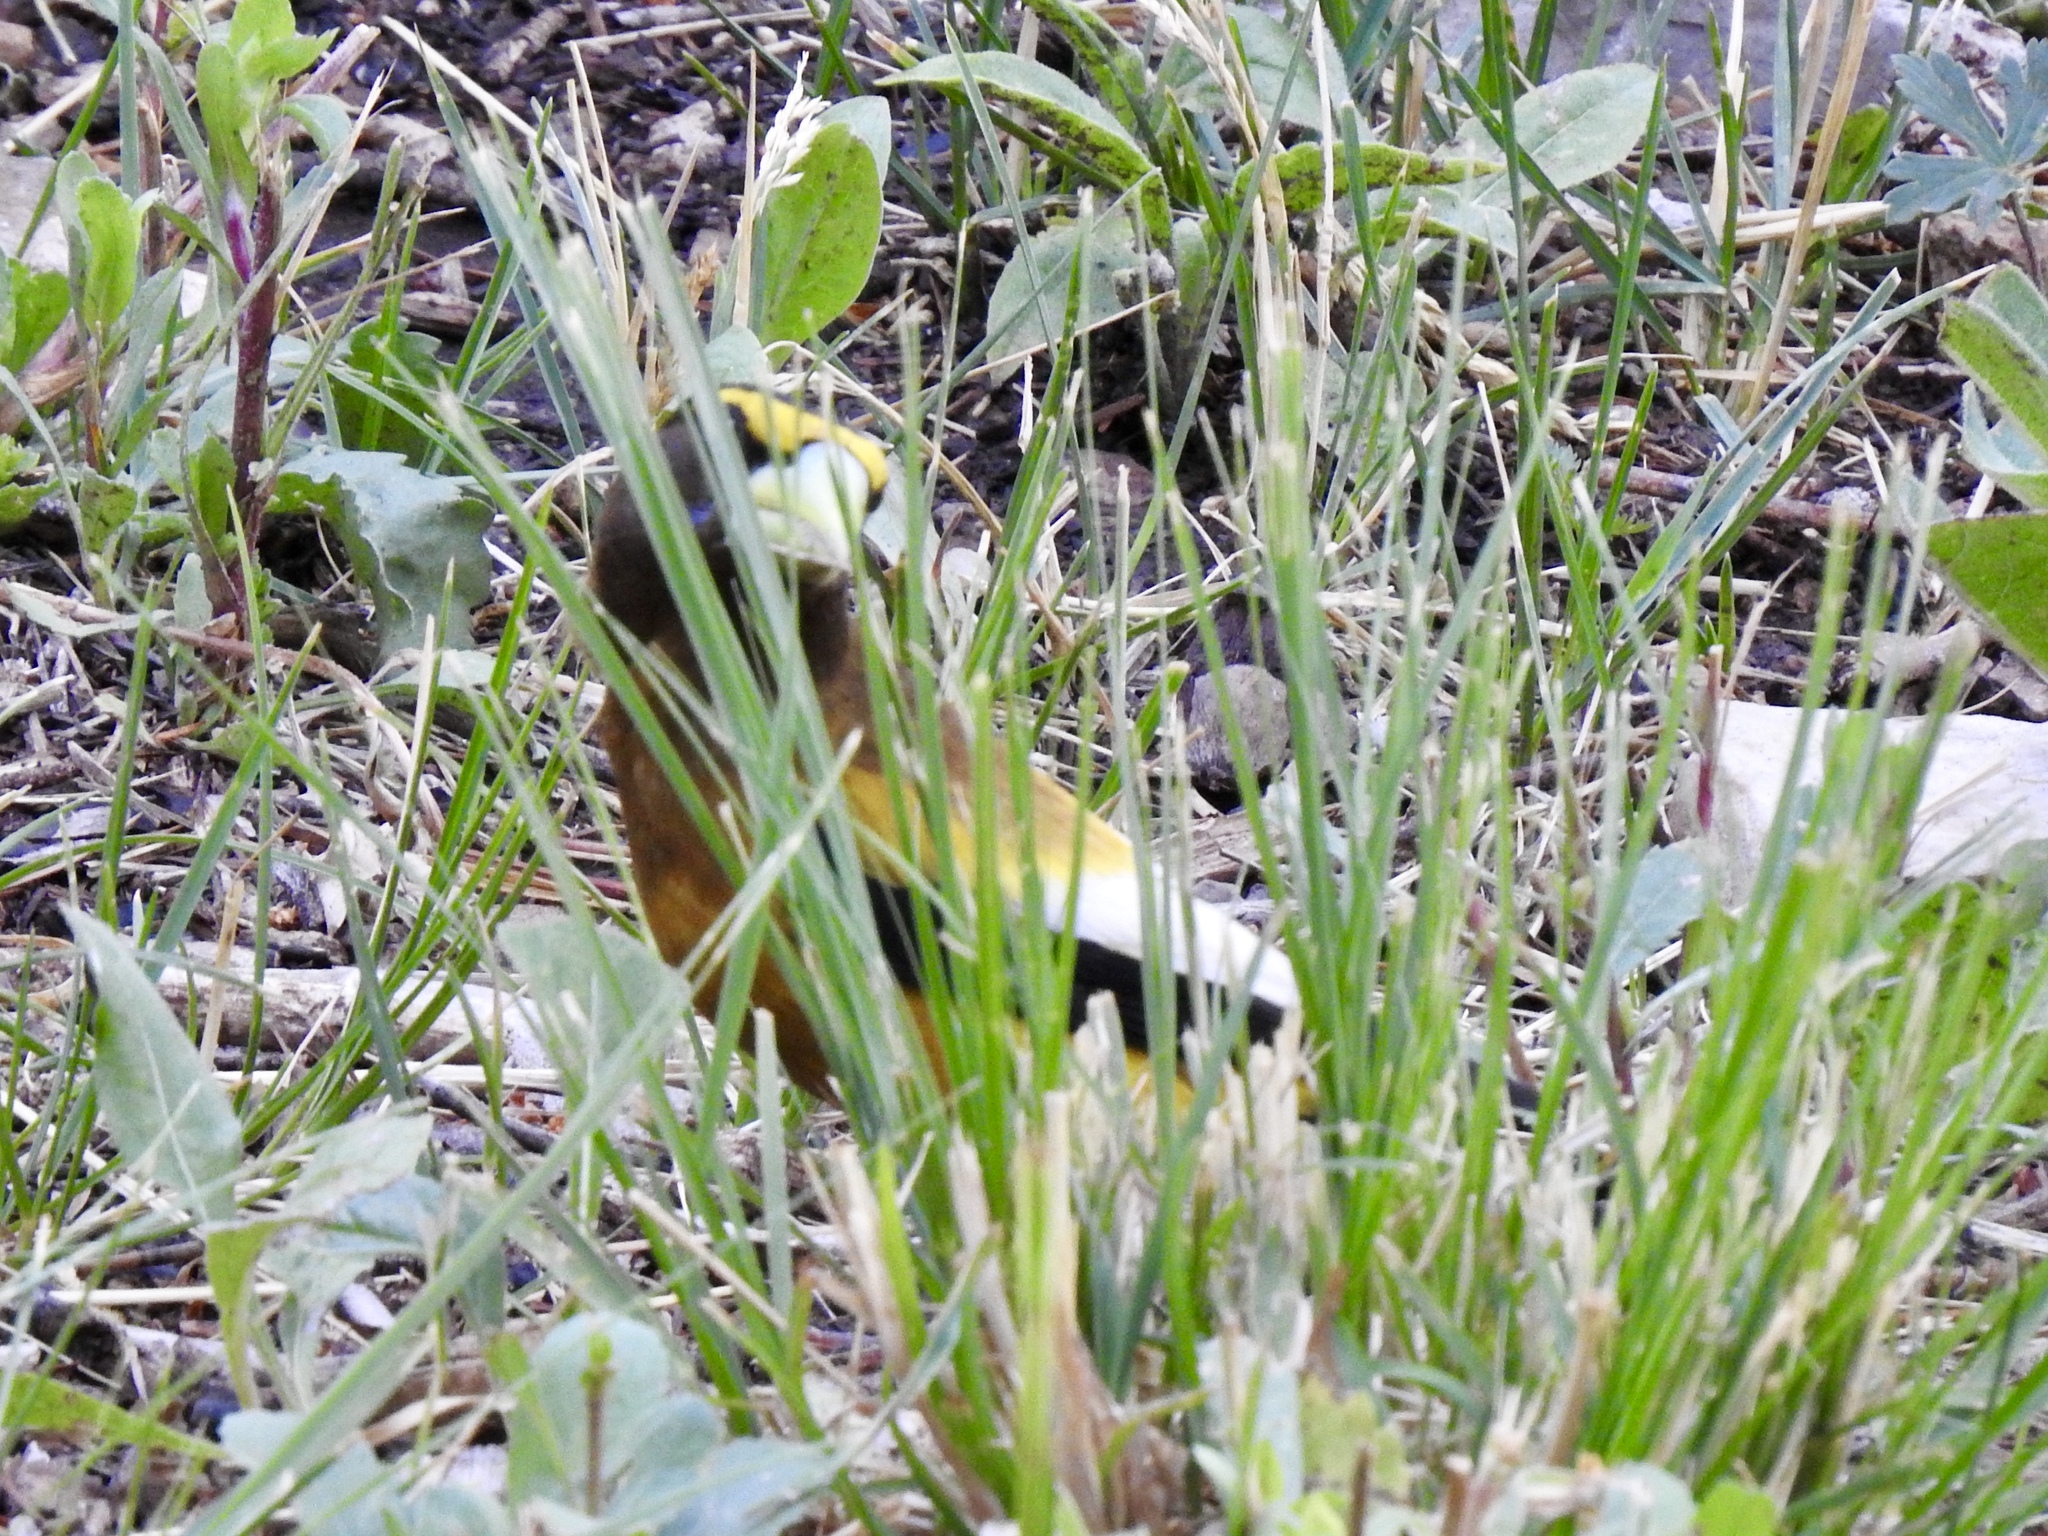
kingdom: Animalia
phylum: Chordata
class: Aves
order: Passeriformes
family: Fringillidae
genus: Hesperiphona
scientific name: Hesperiphona vespertina
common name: Evening grosbeak
